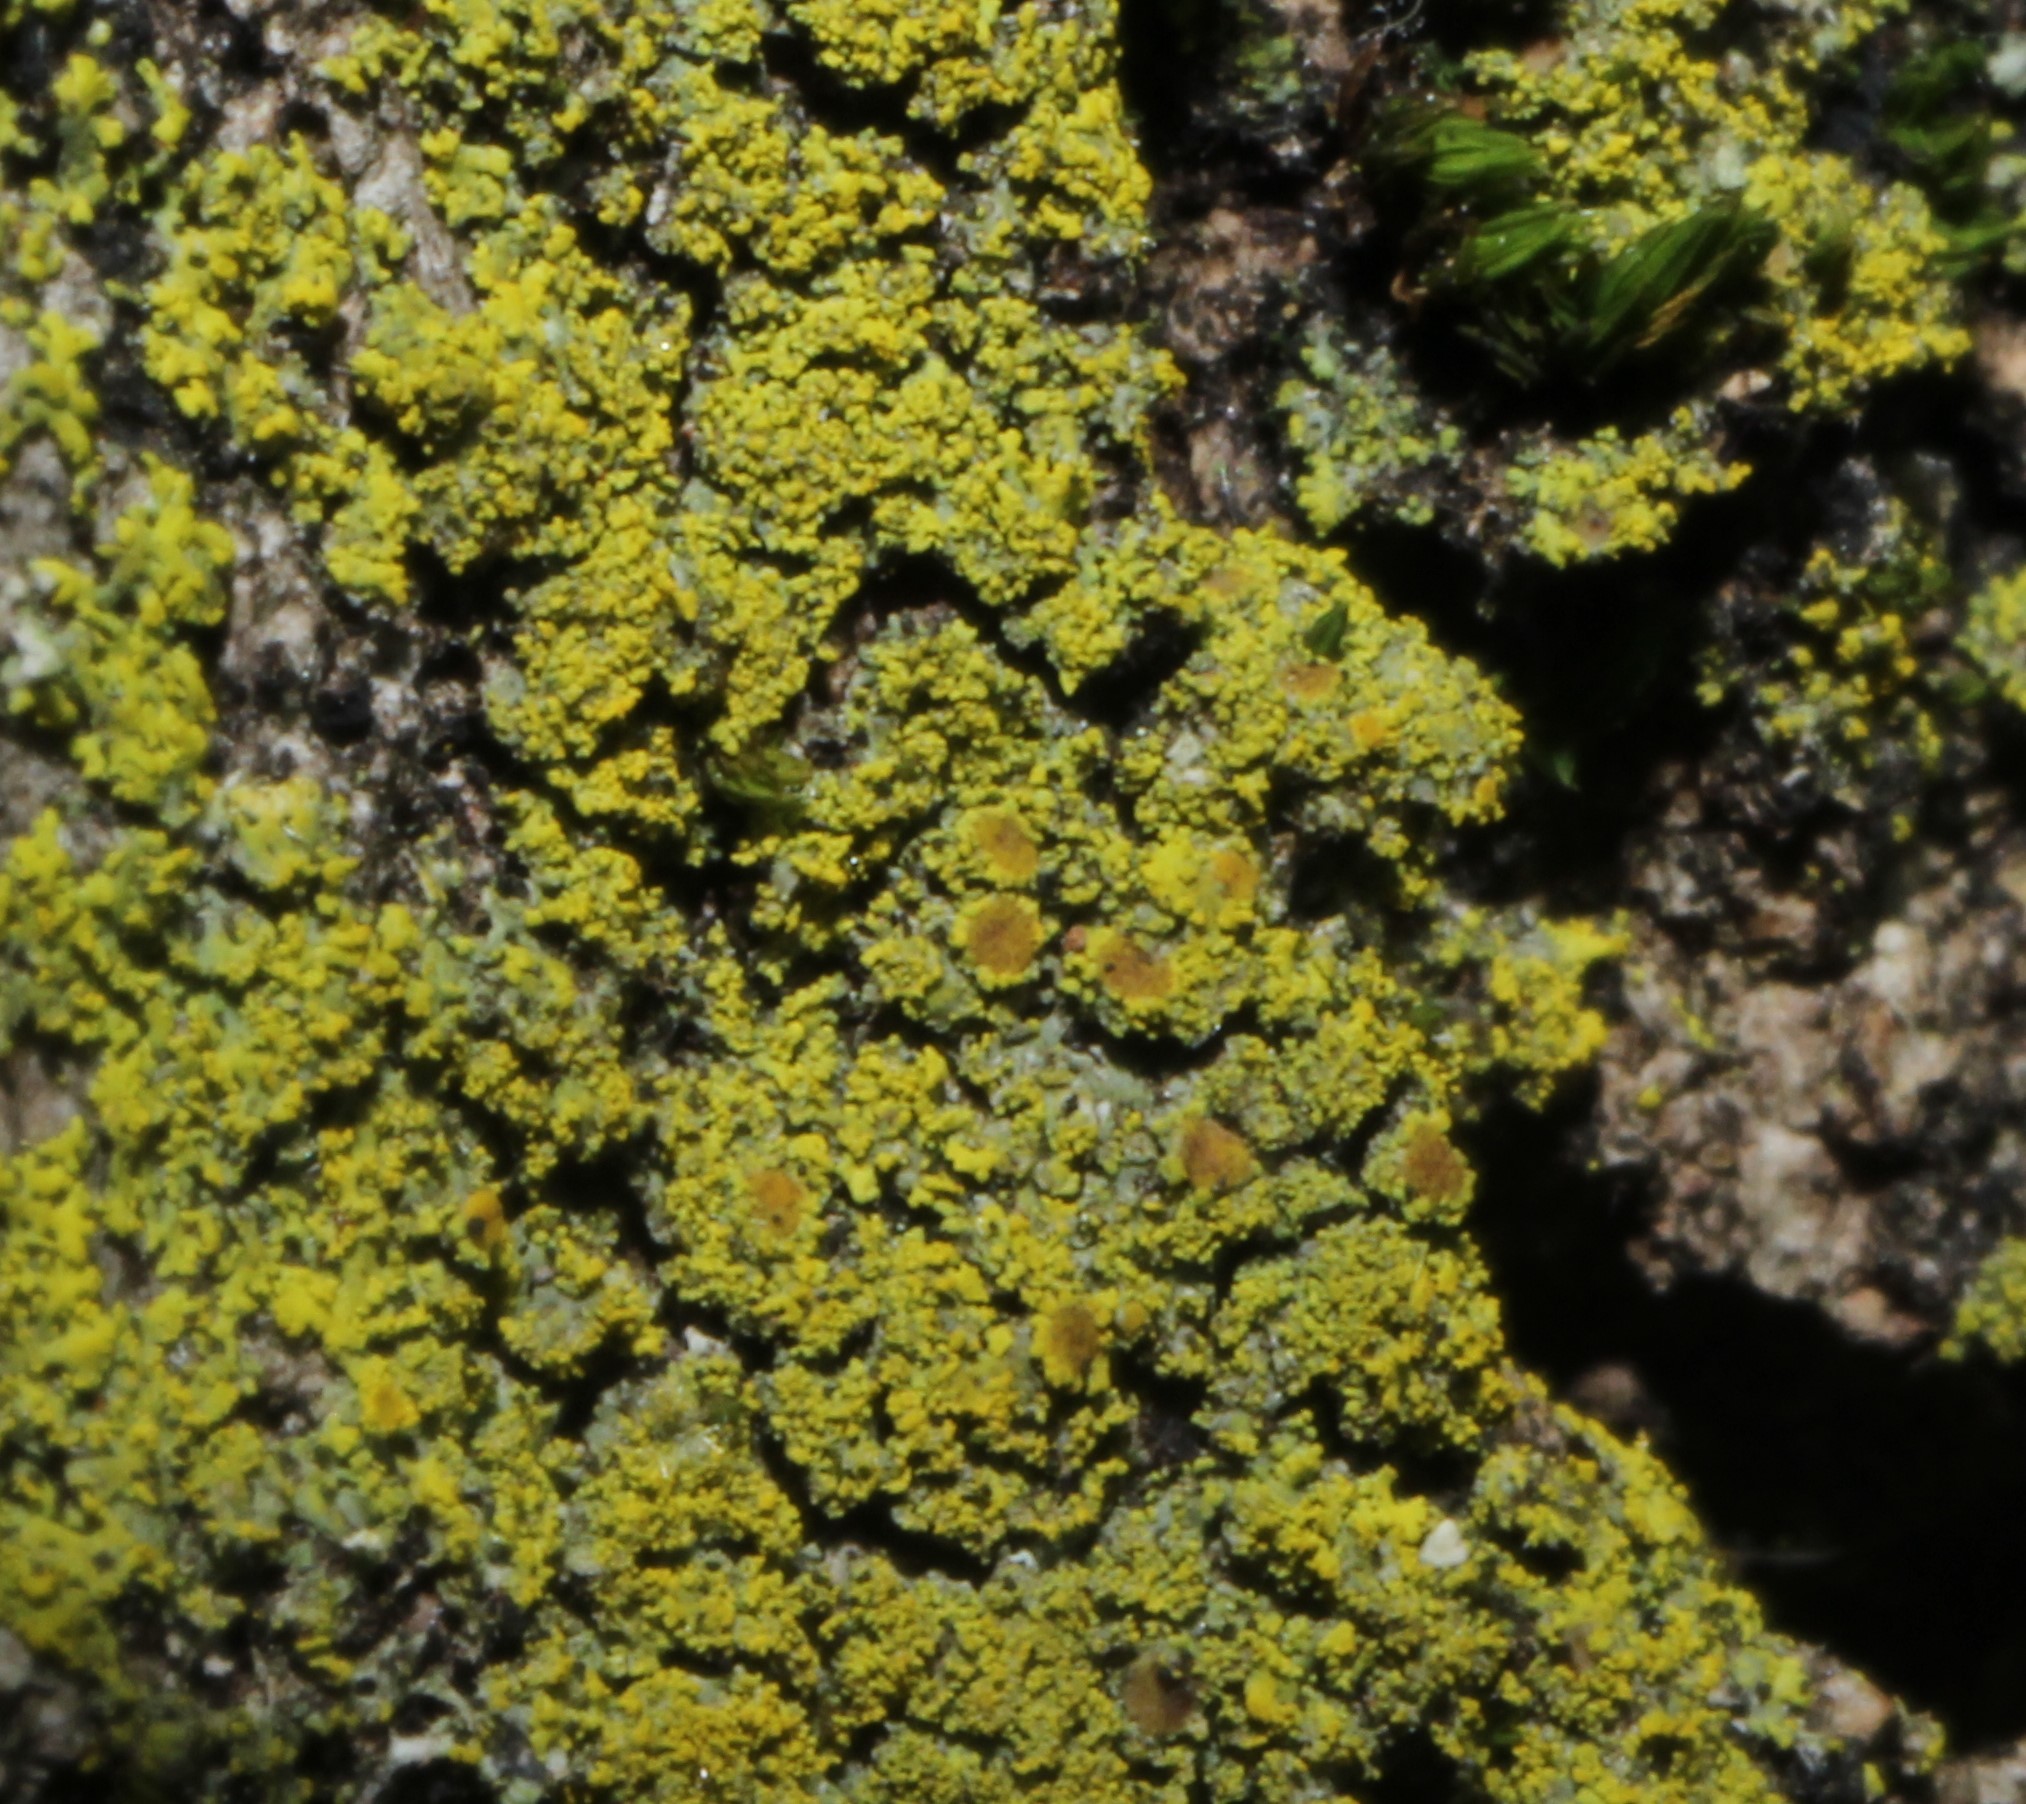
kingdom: Fungi
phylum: Ascomycota
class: Candelariomycetes
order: Candelariales
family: Candelariaceae
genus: Candelaria
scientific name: Candelaria concolor
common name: Candleflame lichen
